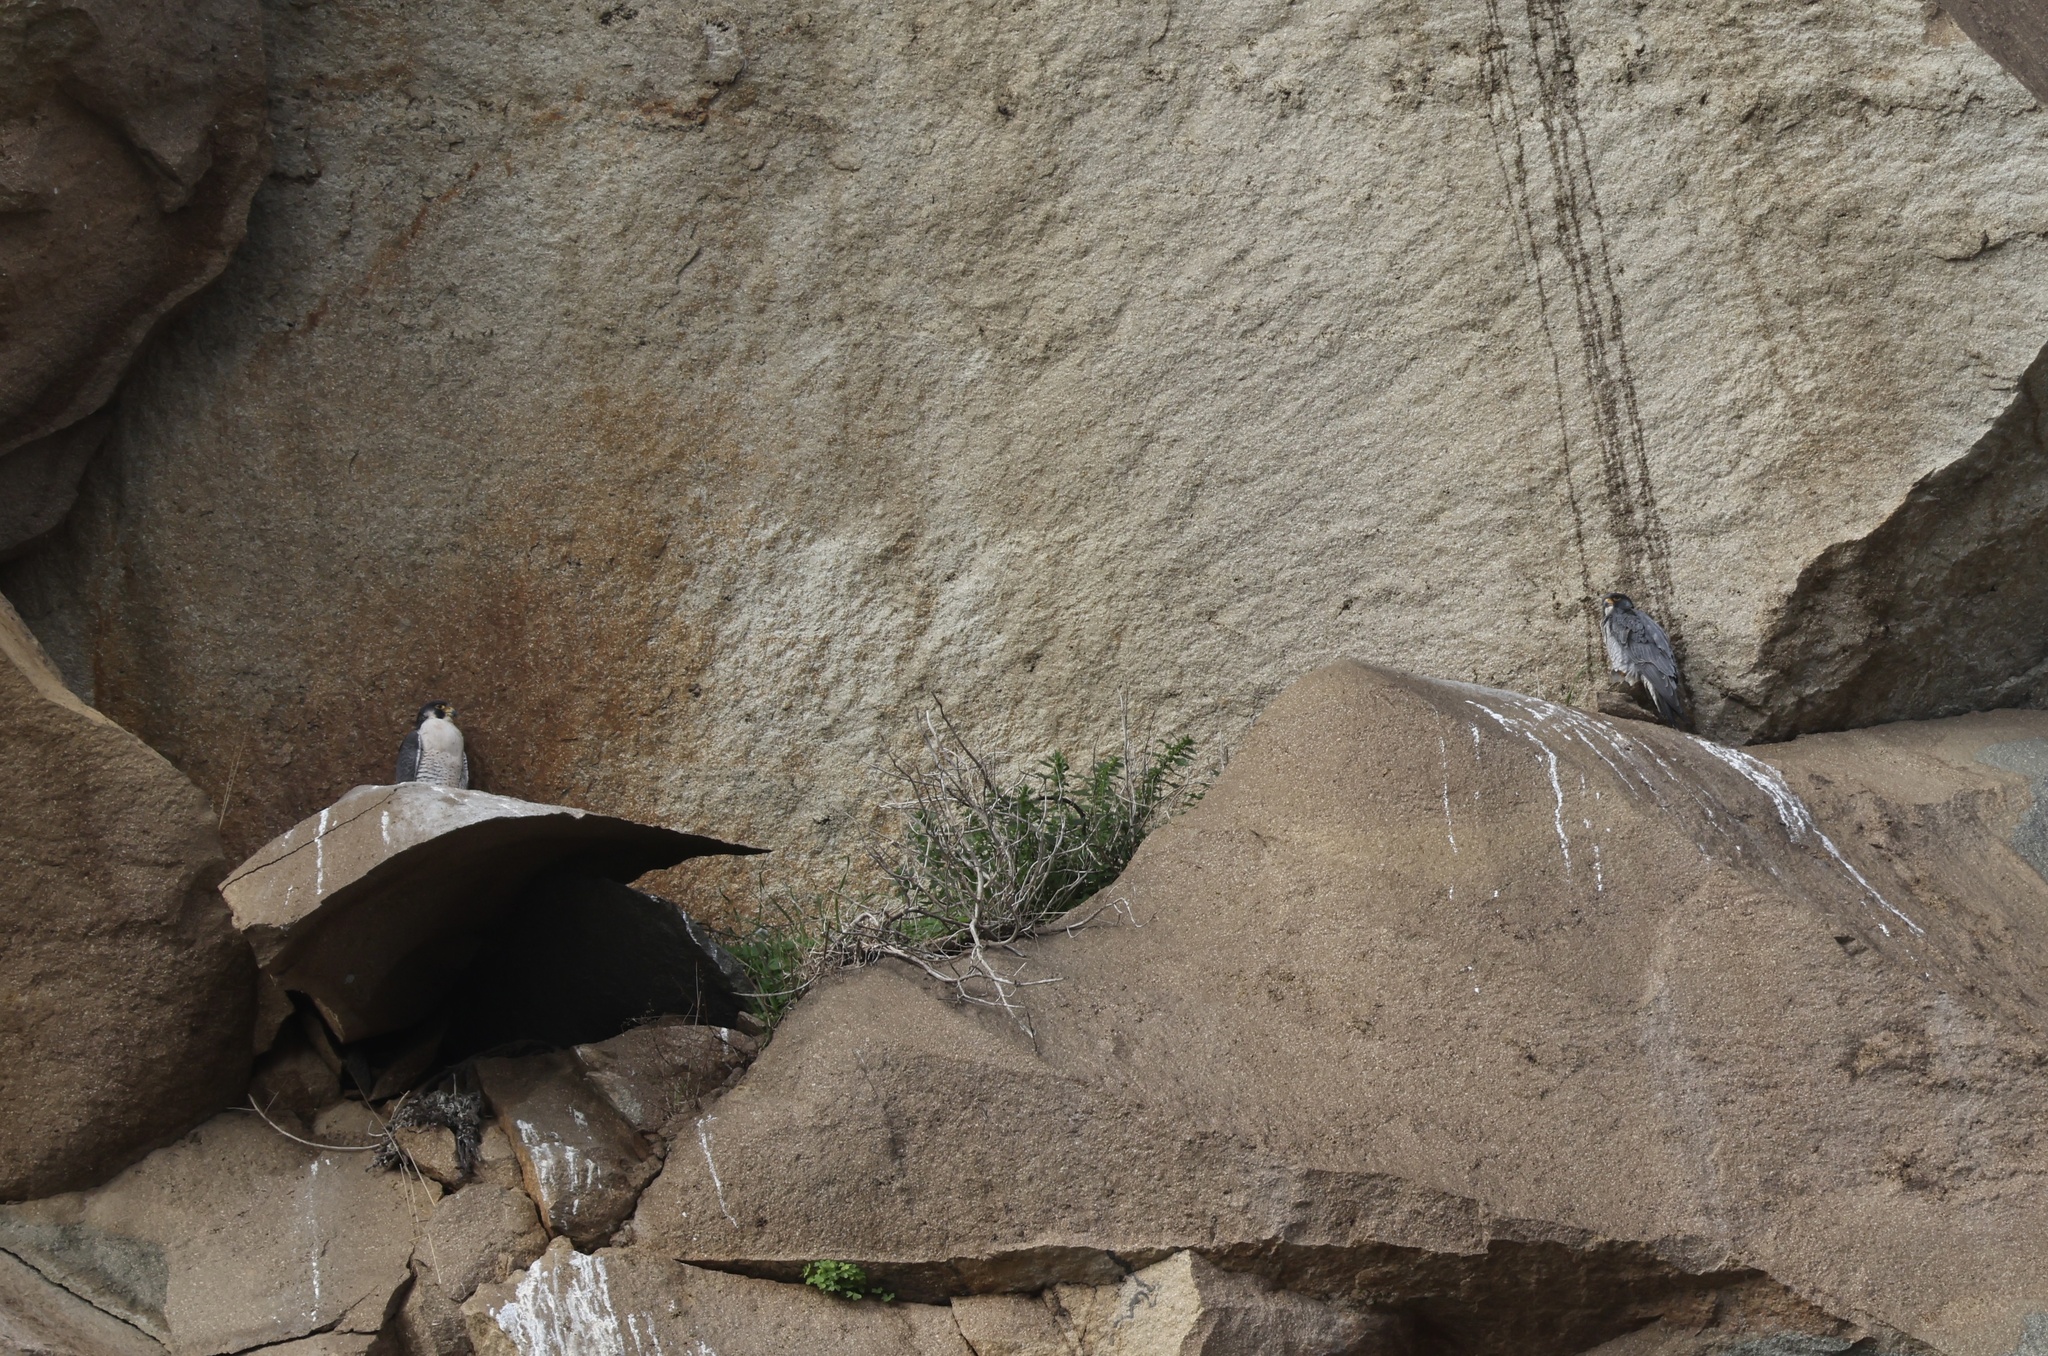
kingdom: Animalia
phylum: Chordata
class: Aves
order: Falconiformes
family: Falconidae
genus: Falco
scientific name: Falco peregrinus
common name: Peregrine falcon
